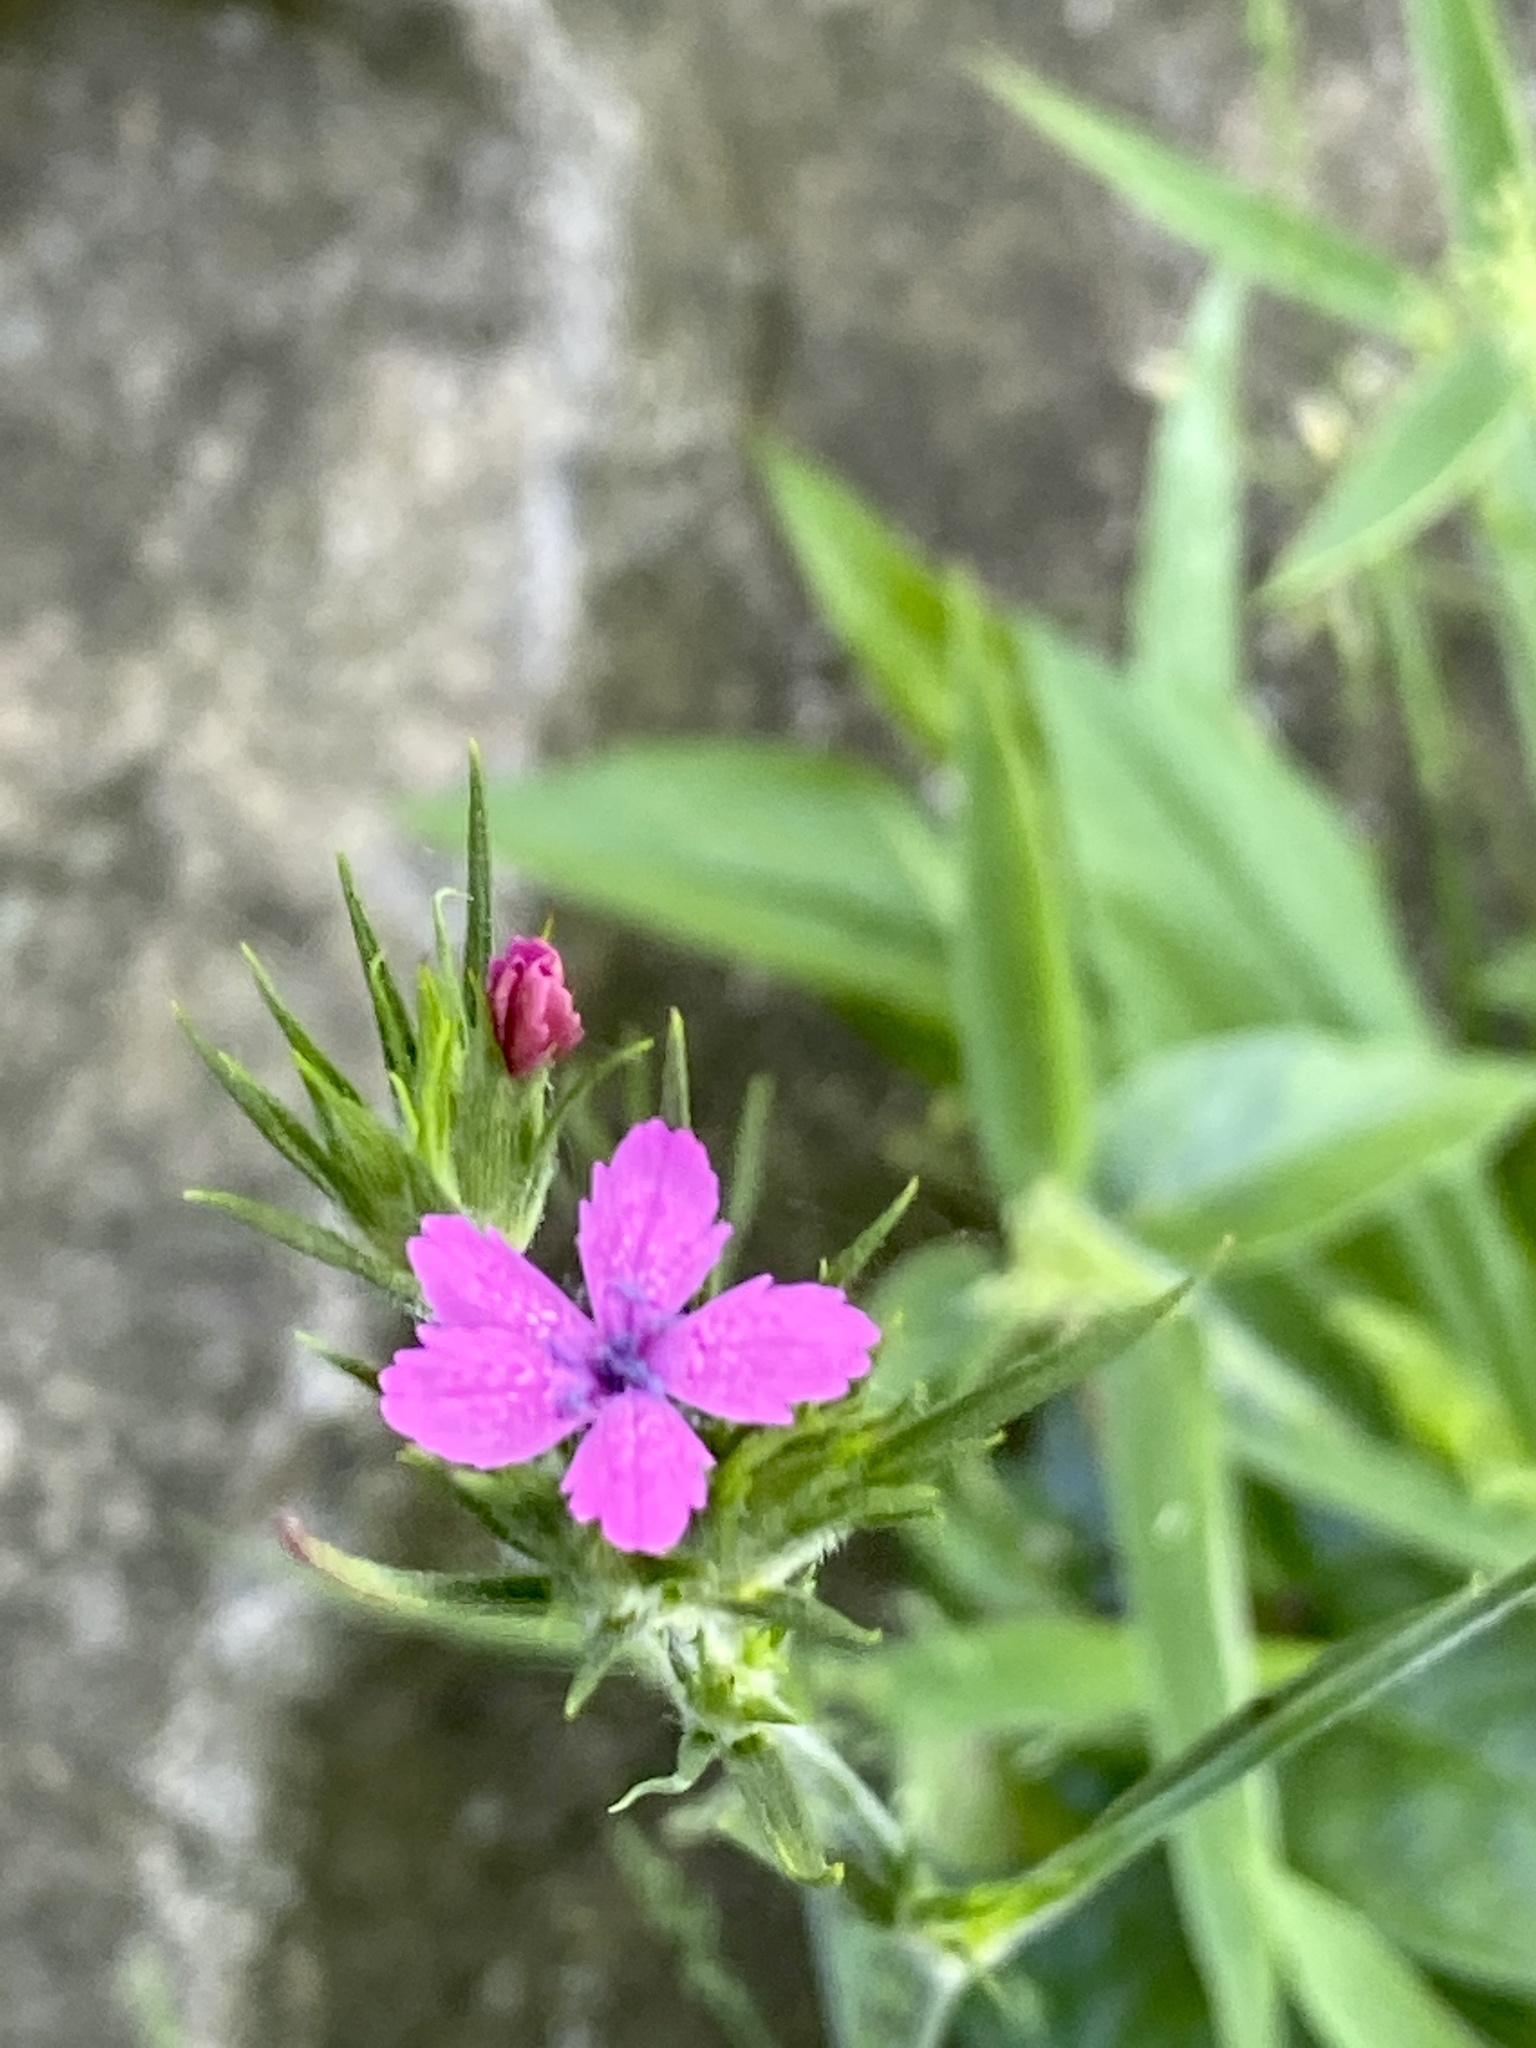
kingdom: Plantae
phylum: Tracheophyta
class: Magnoliopsida
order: Caryophyllales
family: Caryophyllaceae
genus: Dianthus
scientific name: Dianthus armeria
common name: Deptford pink
